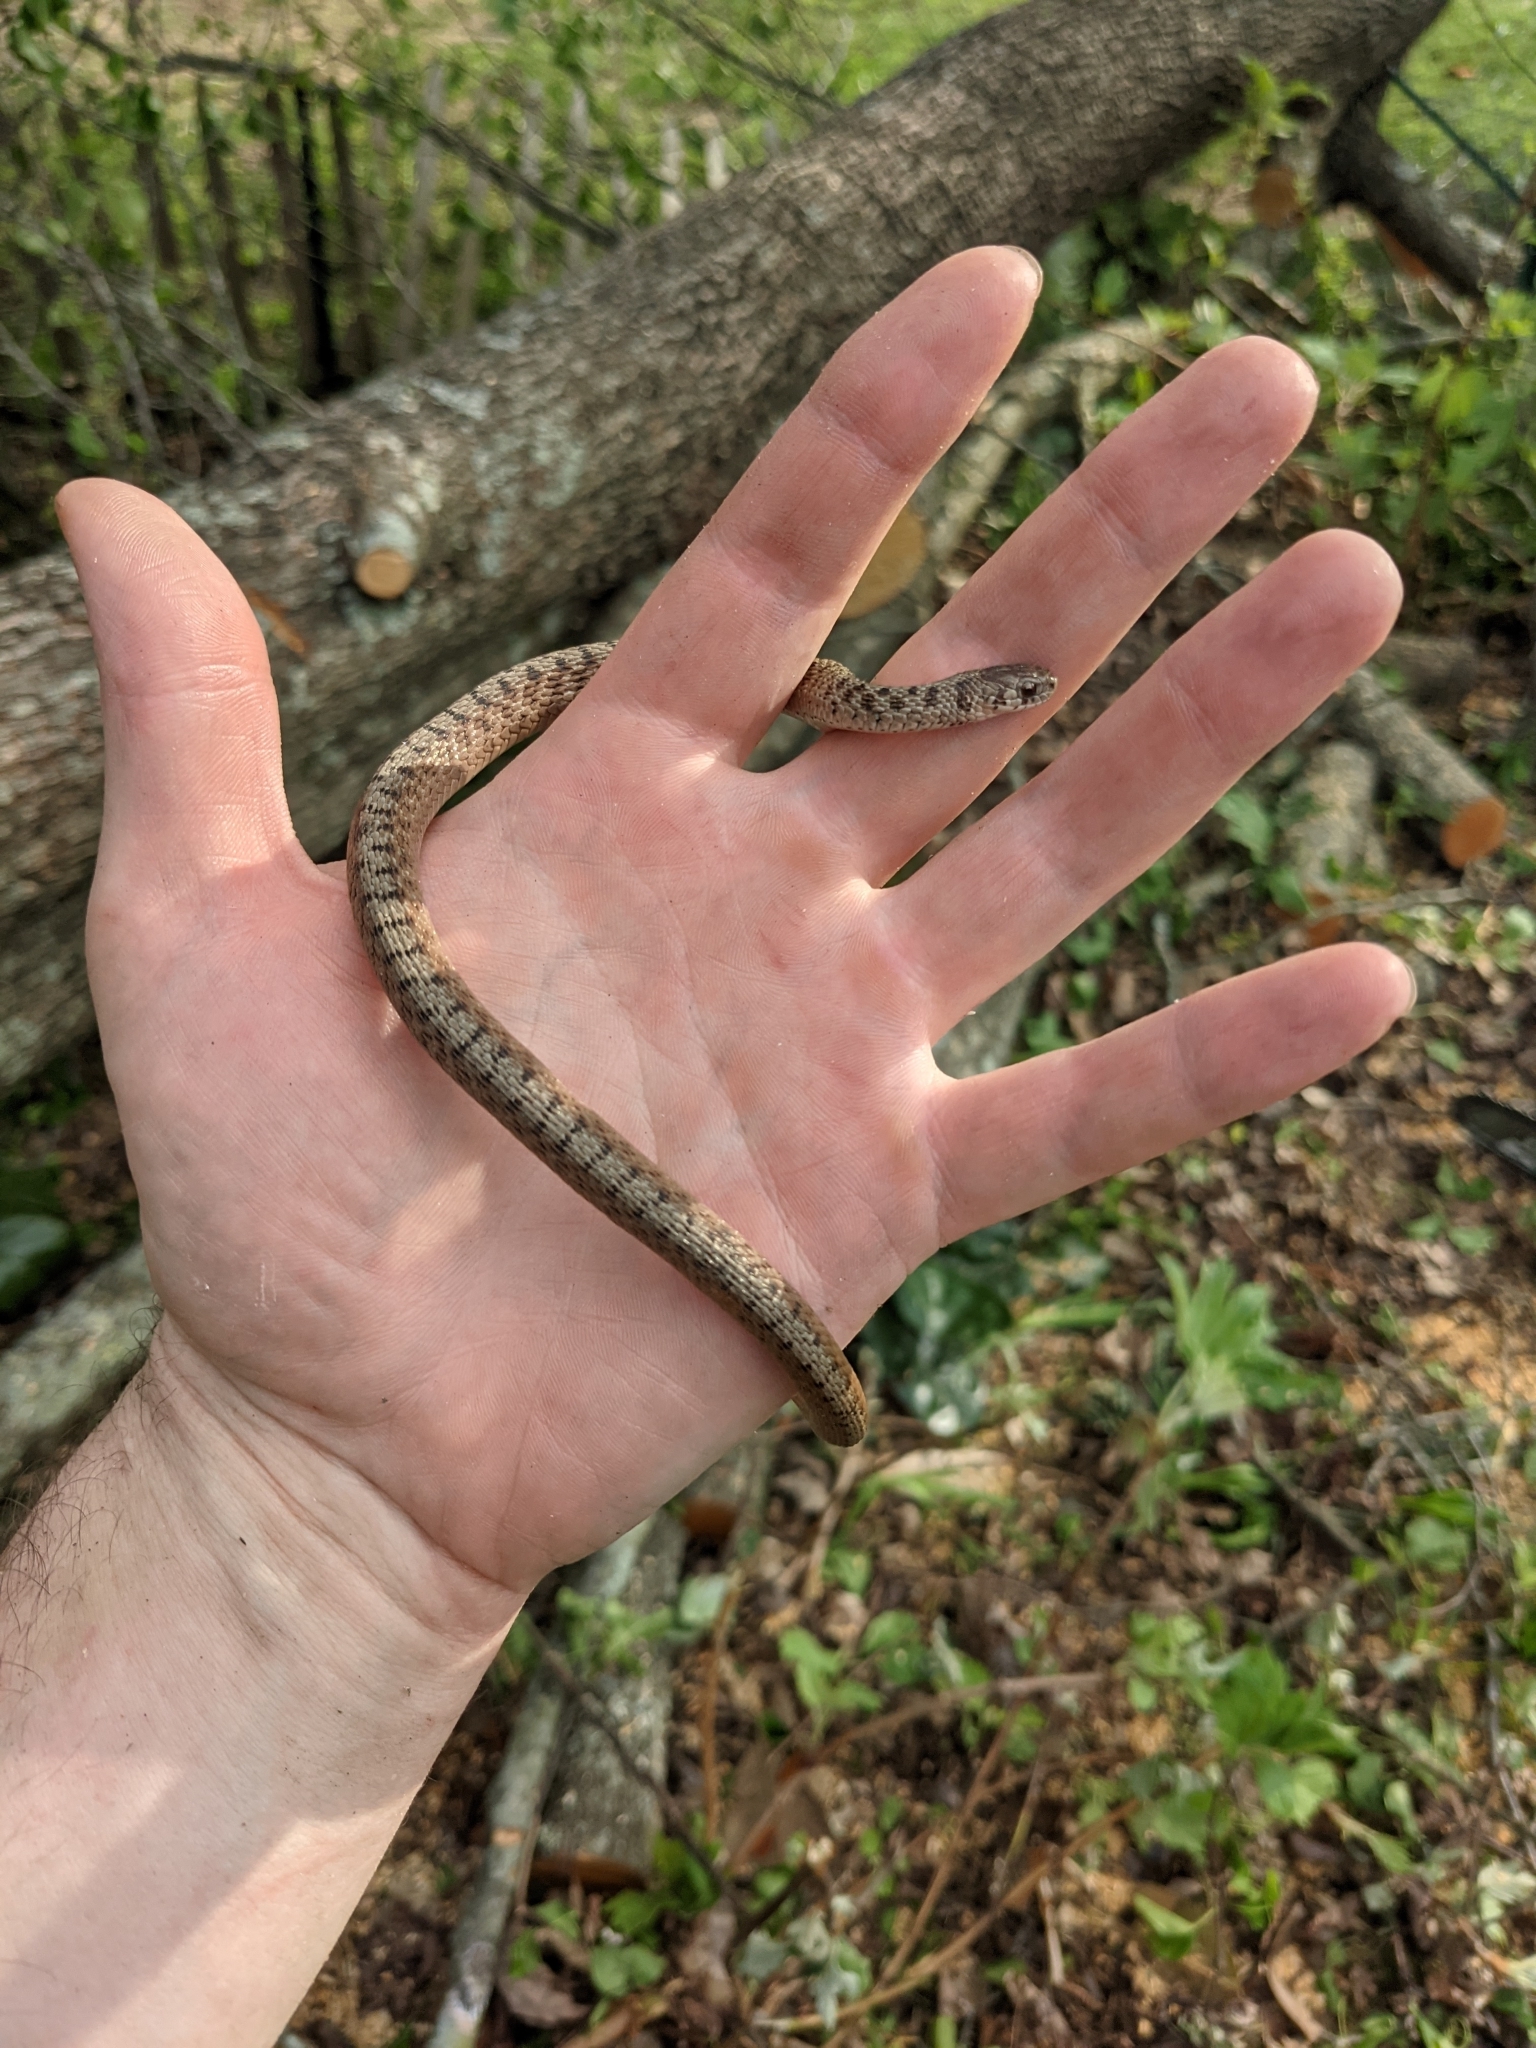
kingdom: Animalia
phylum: Chordata
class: Squamata
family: Colubridae
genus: Storeria
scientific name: Storeria dekayi
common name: (dekay’s) brown snake
